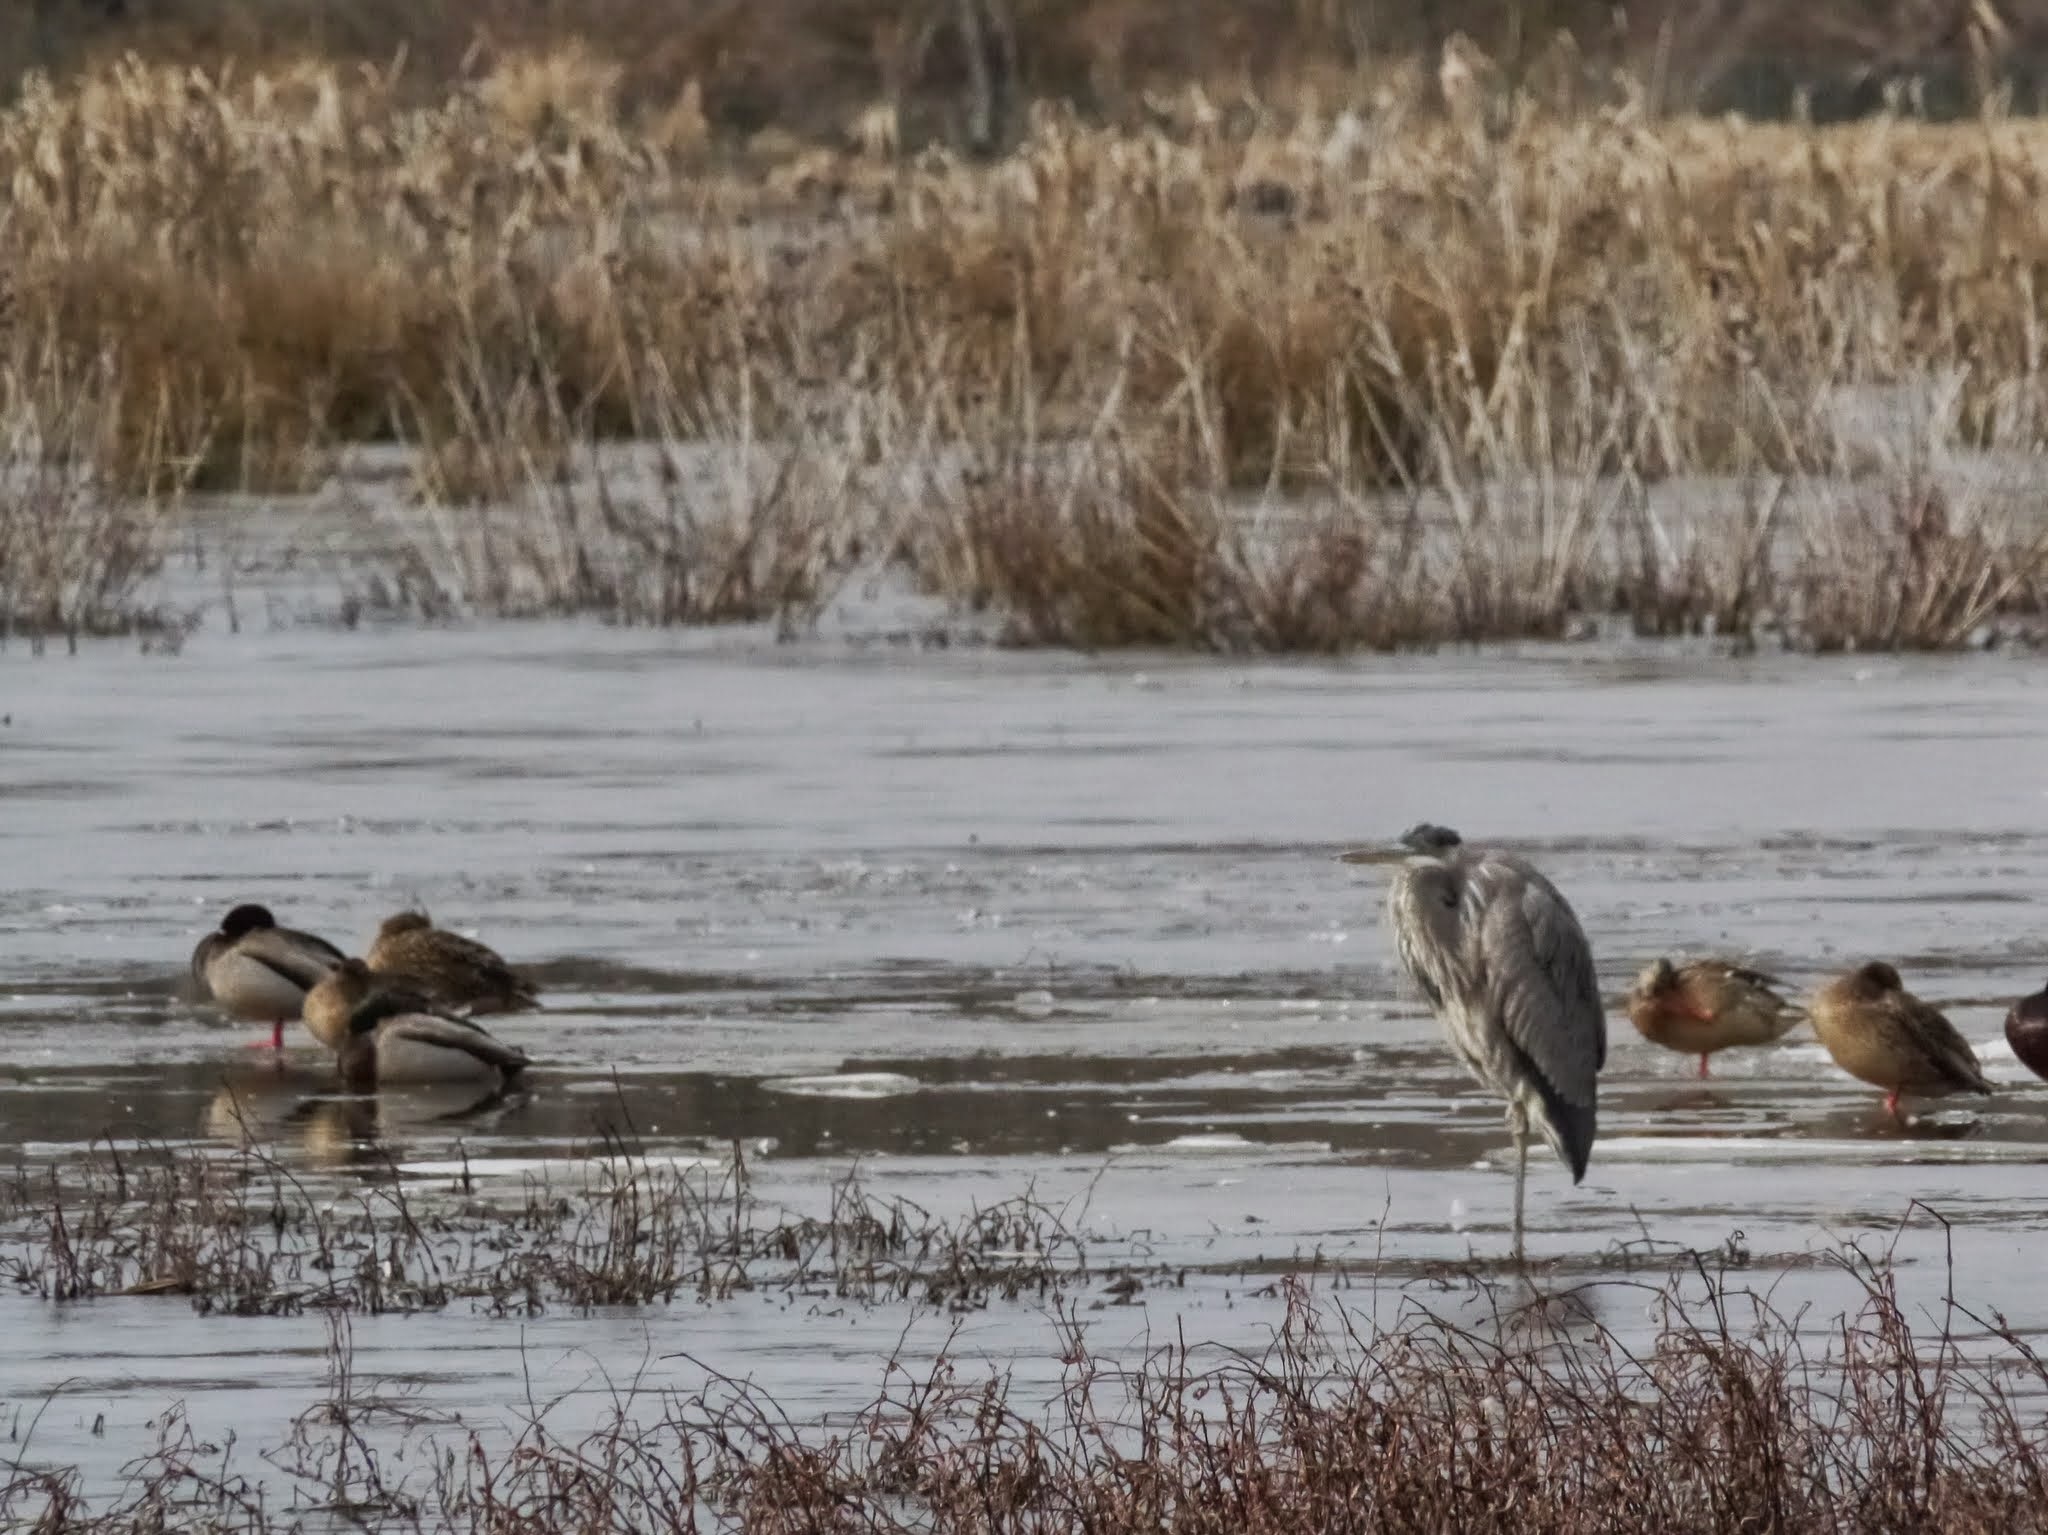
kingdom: Animalia
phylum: Chordata
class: Aves
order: Pelecaniformes
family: Ardeidae
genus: Ardea
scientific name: Ardea herodias
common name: Great blue heron
